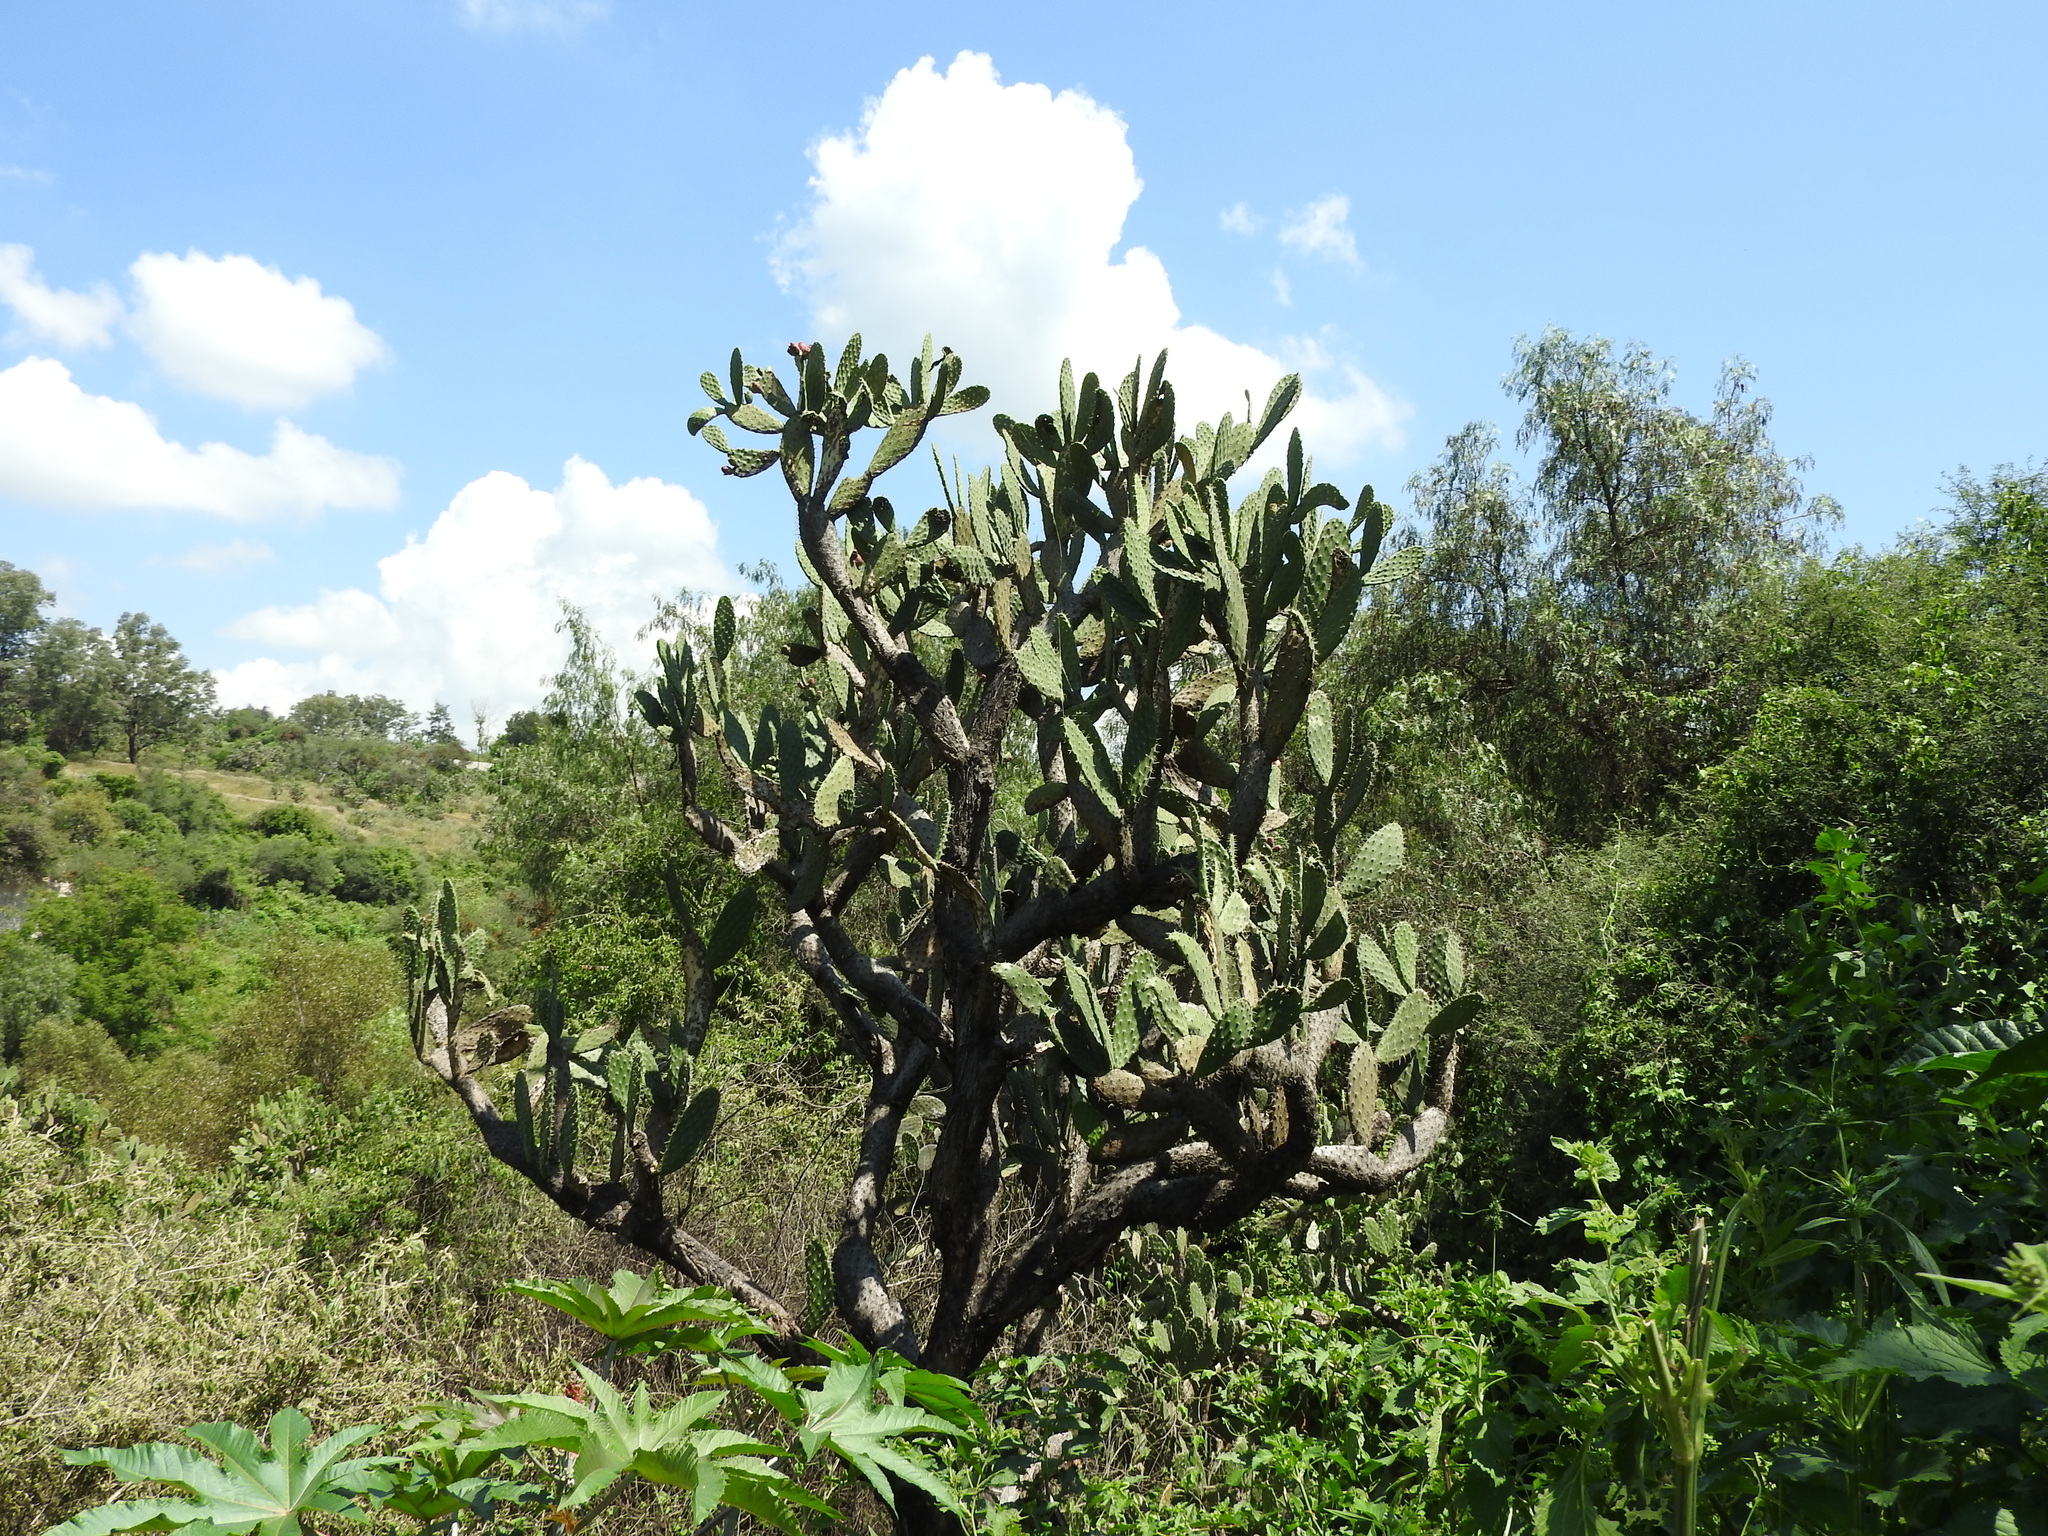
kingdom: Plantae
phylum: Tracheophyta
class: Magnoliopsida
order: Caryophyllales
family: Cactaceae
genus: Opuntia
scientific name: Opuntia jaliscana
